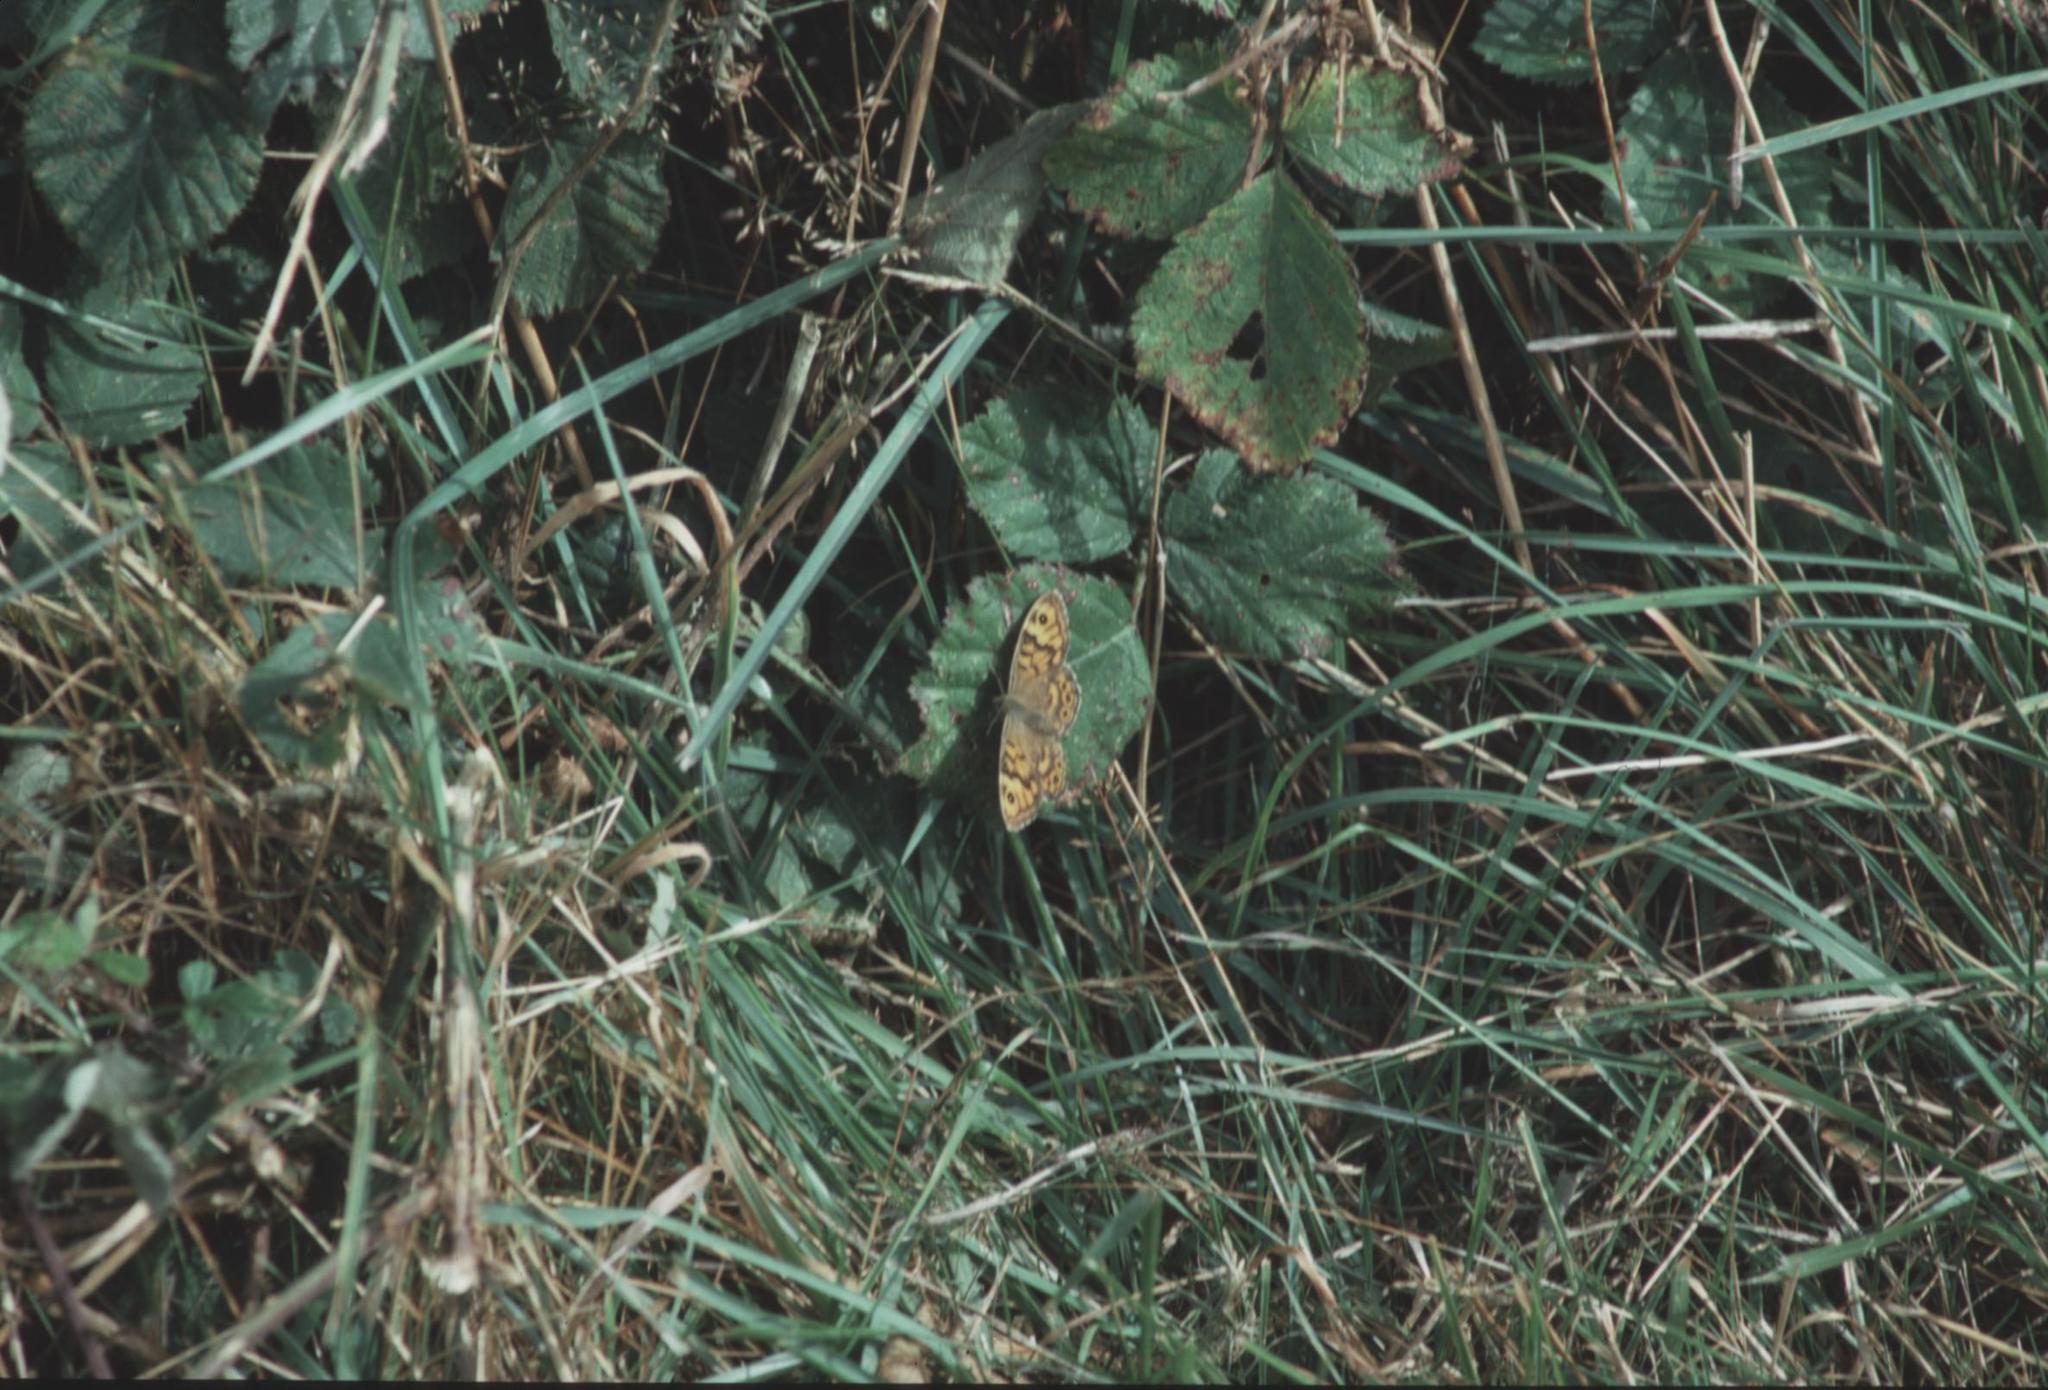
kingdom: Animalia
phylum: Arthropoda
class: Insecta
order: Lepidoptera
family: Nymphalidae
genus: Pararge
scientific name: Pararge Lasiommata megera
